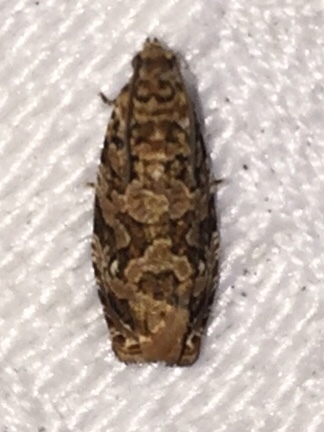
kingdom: Animalia
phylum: Arthropoda
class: Insecta
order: Lepidoptera
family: Tortricidae
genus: Phaecasiophora
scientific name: Phaecasiophora niveiguttana
